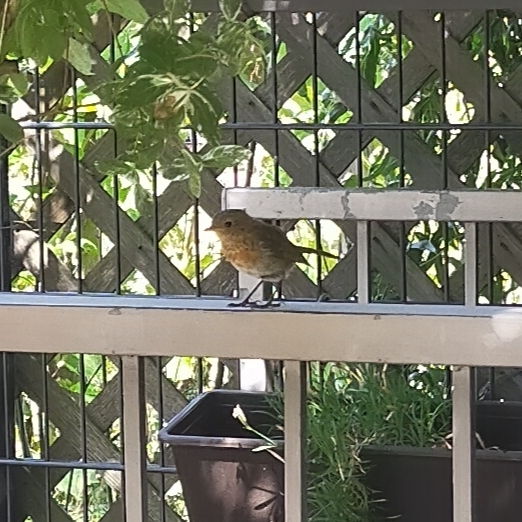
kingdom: Animalia
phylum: Chordata
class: Aves
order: Passeriformes
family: Muscicapidae
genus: Erithacus
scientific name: Erithacus rubecula
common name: European robin
